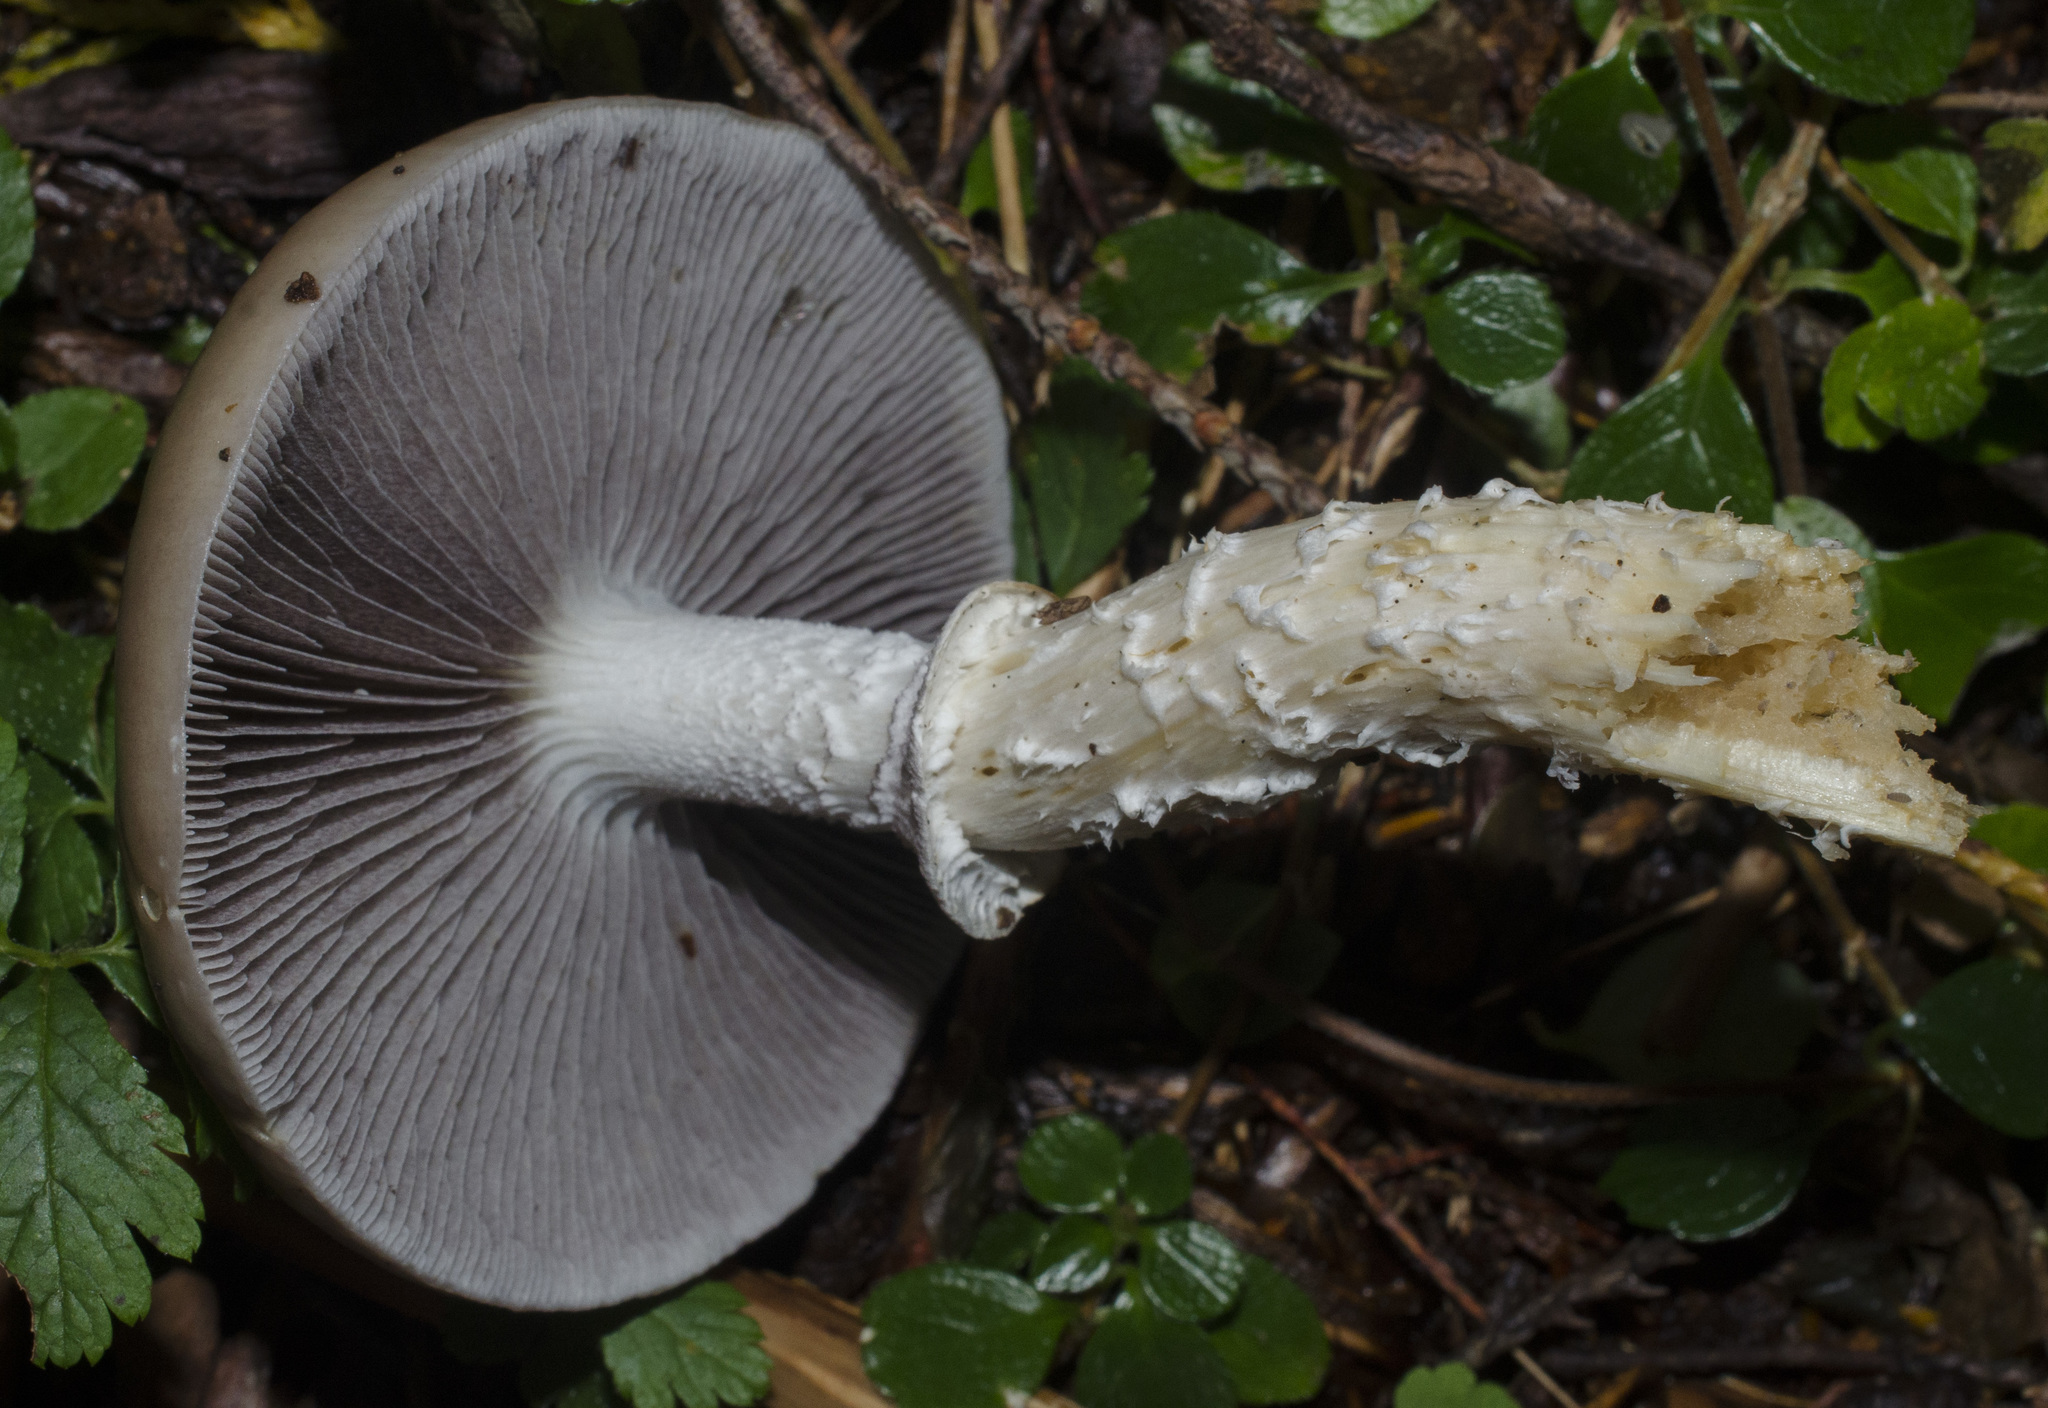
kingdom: Fungi
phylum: Basidiomycota
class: Agaricomycetes
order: Agaricales
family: Strophariaceae
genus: Stropharia
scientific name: Stropharia hornemannii
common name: Conifer roundhead
